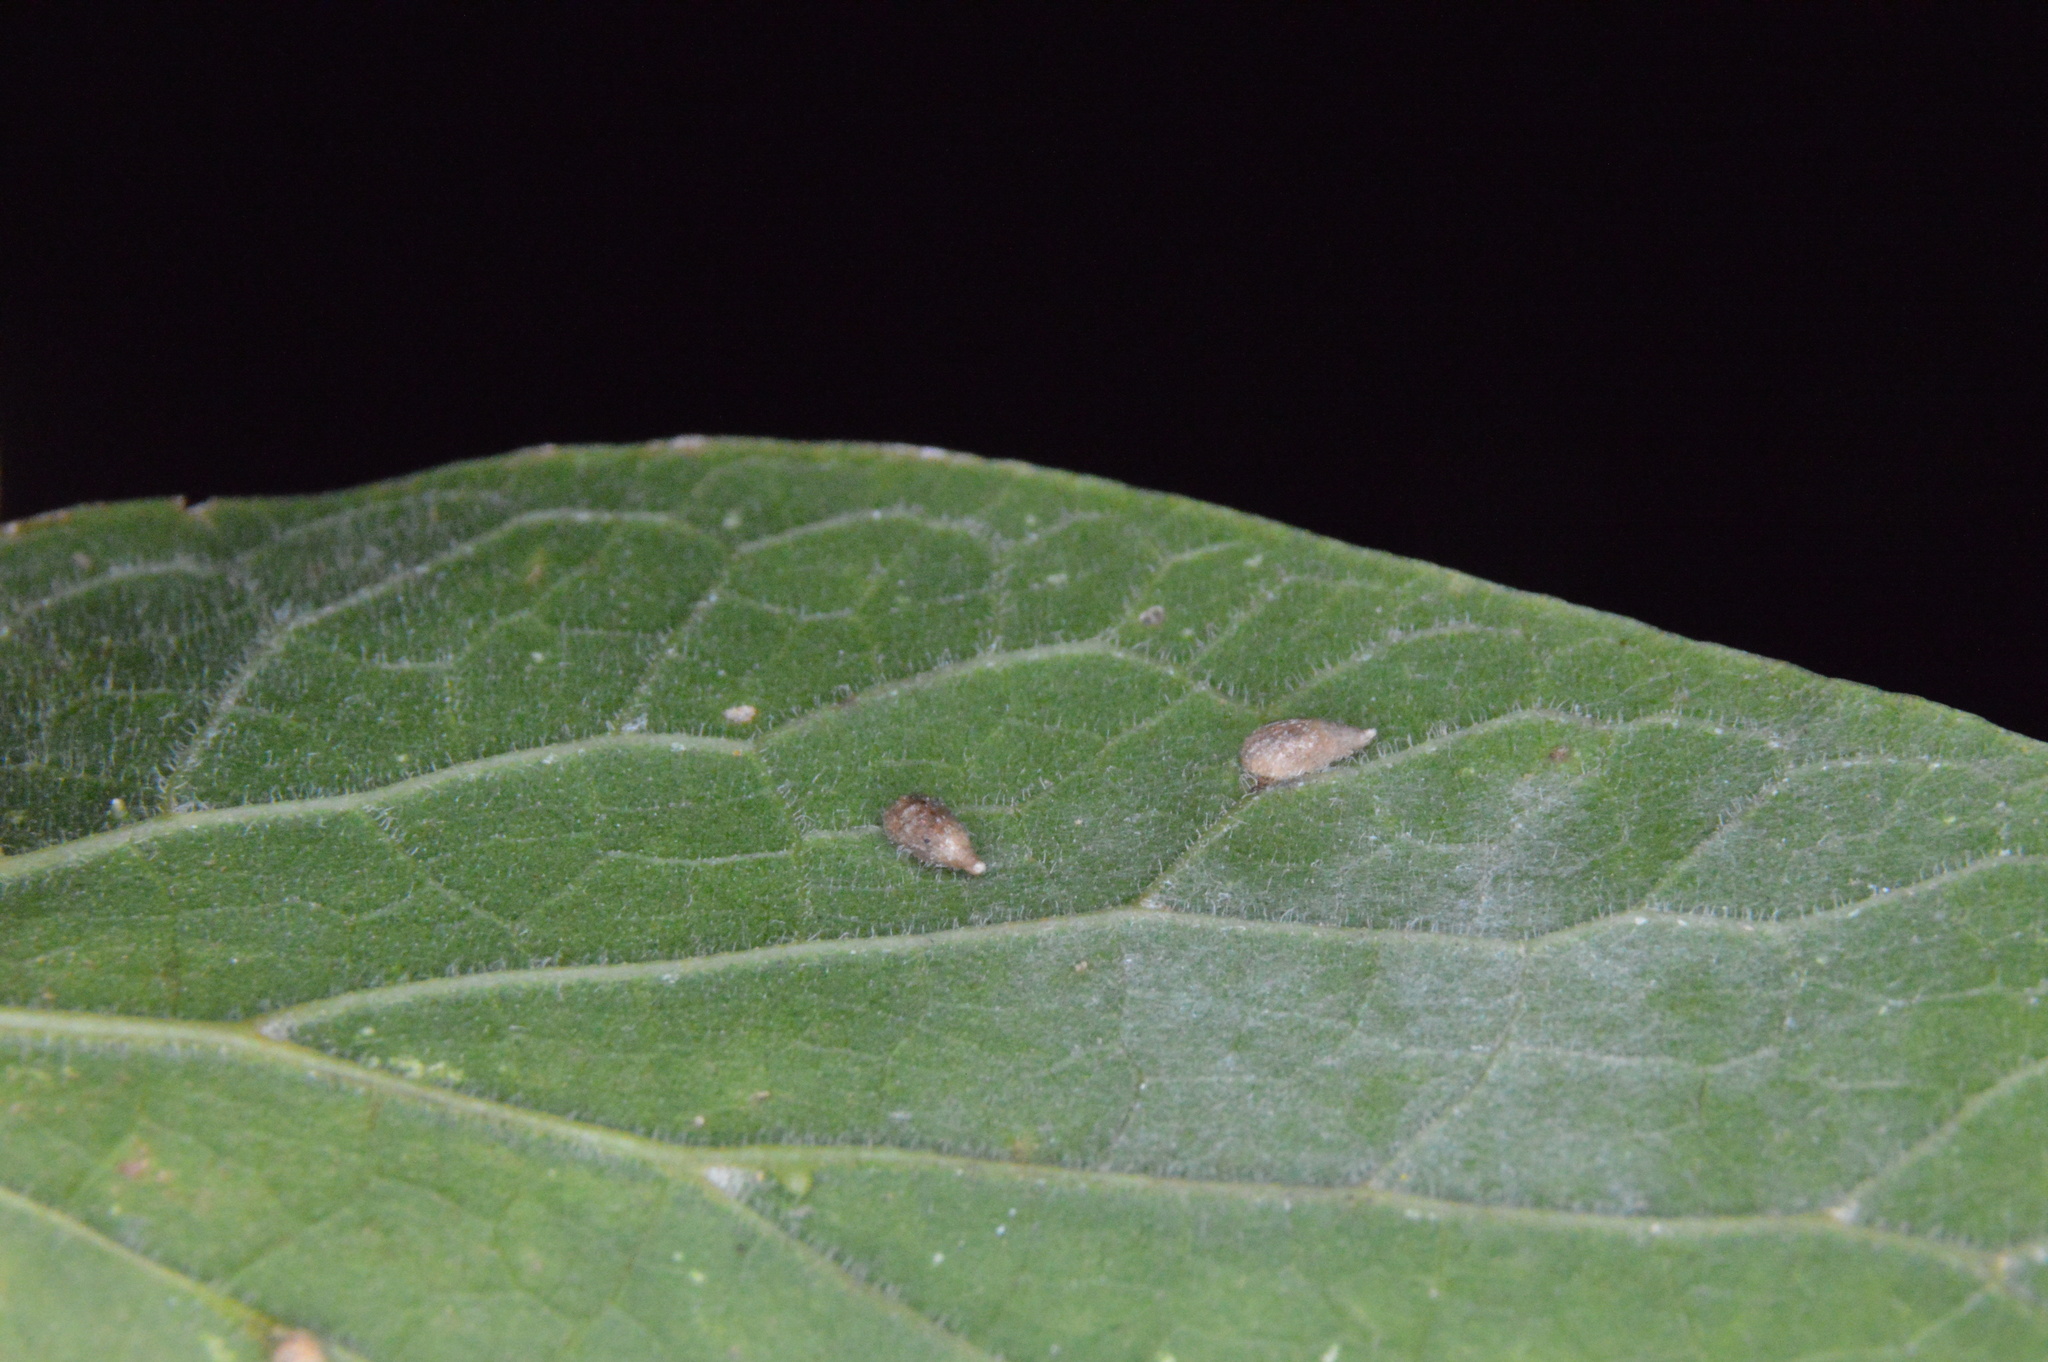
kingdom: Animalia
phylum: Arthropoda
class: Insecta
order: Diptera
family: Cecidomyiidae
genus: Celticecis
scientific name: Celticecis supina
